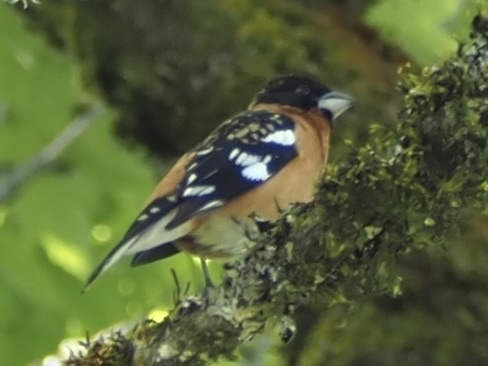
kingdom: Animalia
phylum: Chordata
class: Aves
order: Passeriformes
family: Cardinalidae
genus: Pheucticus
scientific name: Pheucticus melanocephalus
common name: Black-headed grosbeak
